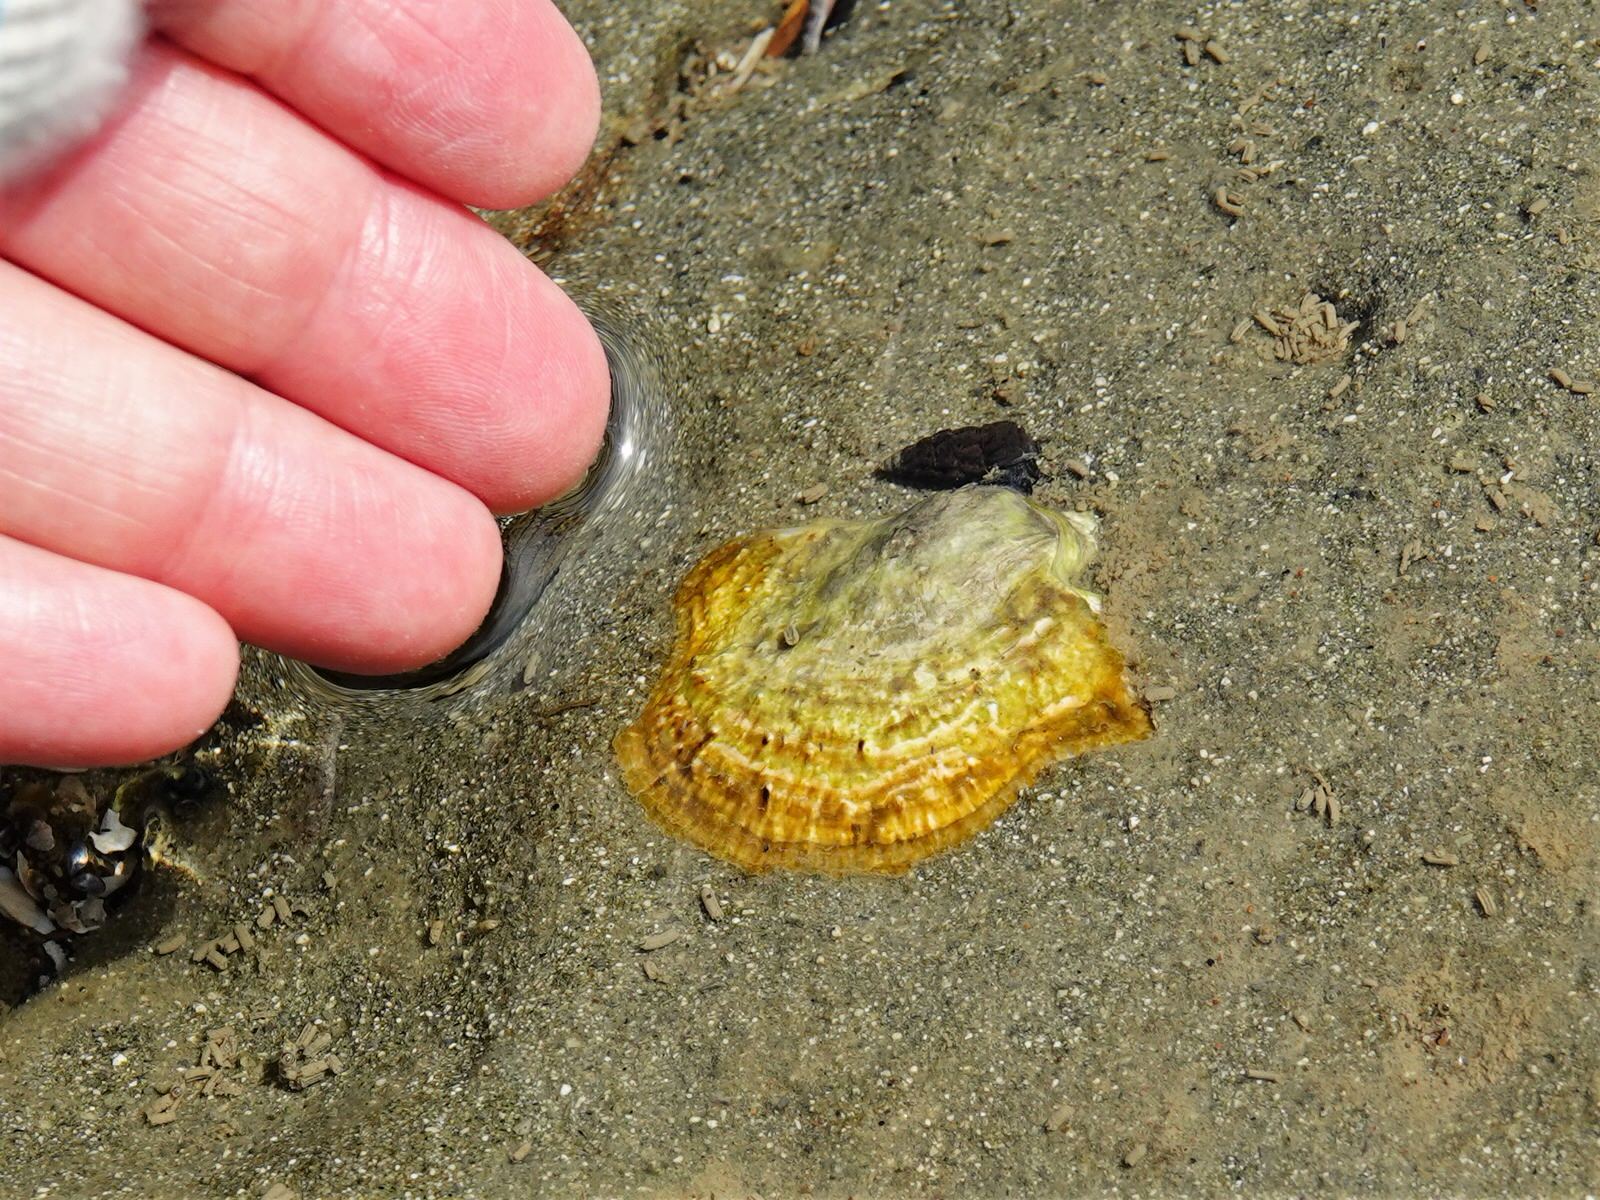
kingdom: Animalia
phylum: Mollusca
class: Bivalvia
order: Ostreida
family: Ostreidae
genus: Magallana
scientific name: Magallana gigas
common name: Pacific oyster
